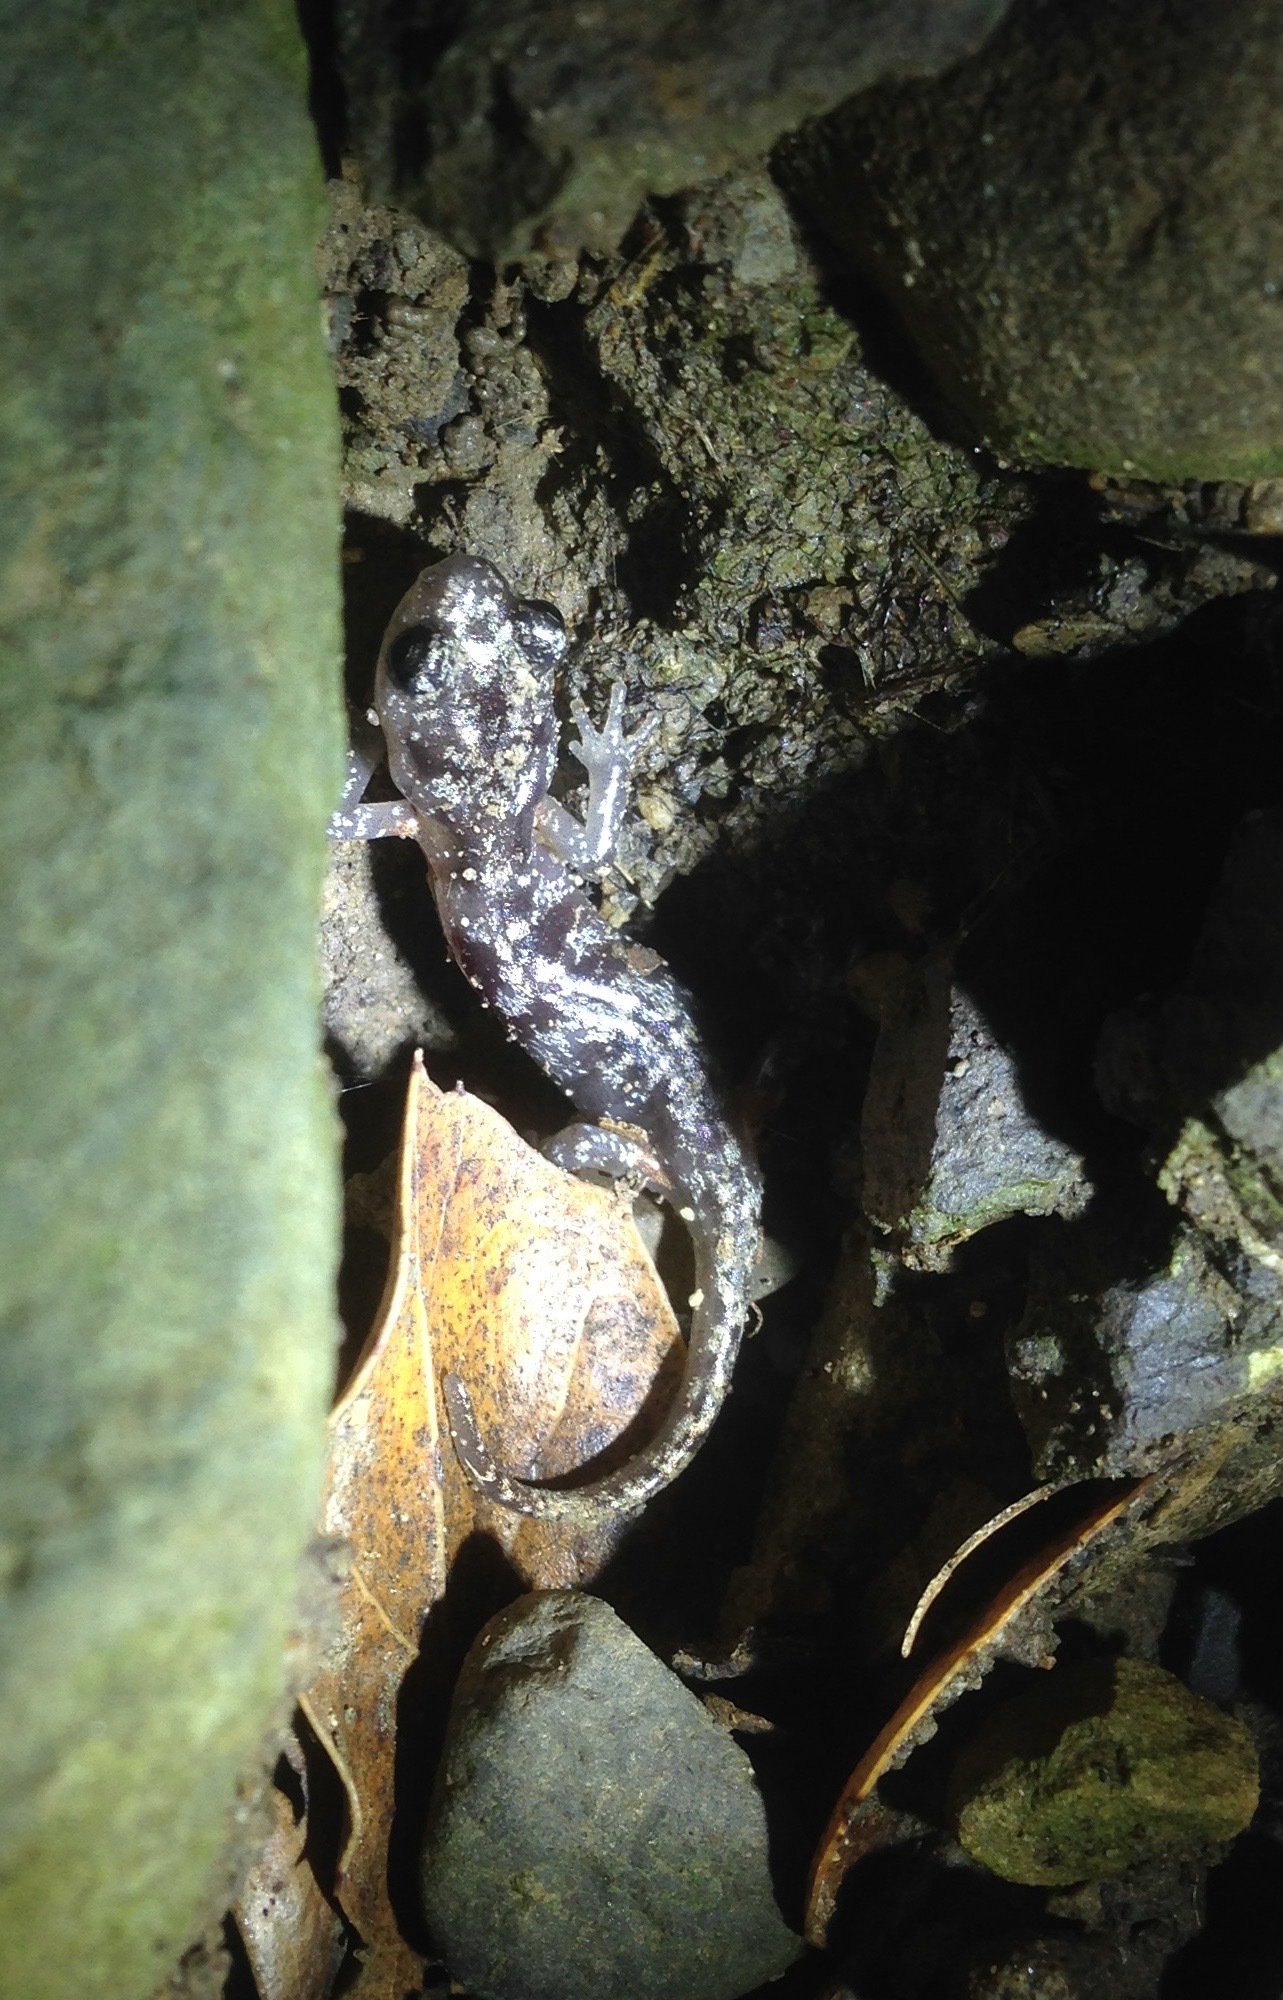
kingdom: Animalia
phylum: Chordata
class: Amphibia
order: Caudata
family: Plethodontidae
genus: Aneides
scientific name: Aneides lugubris
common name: Arboreal salamander
